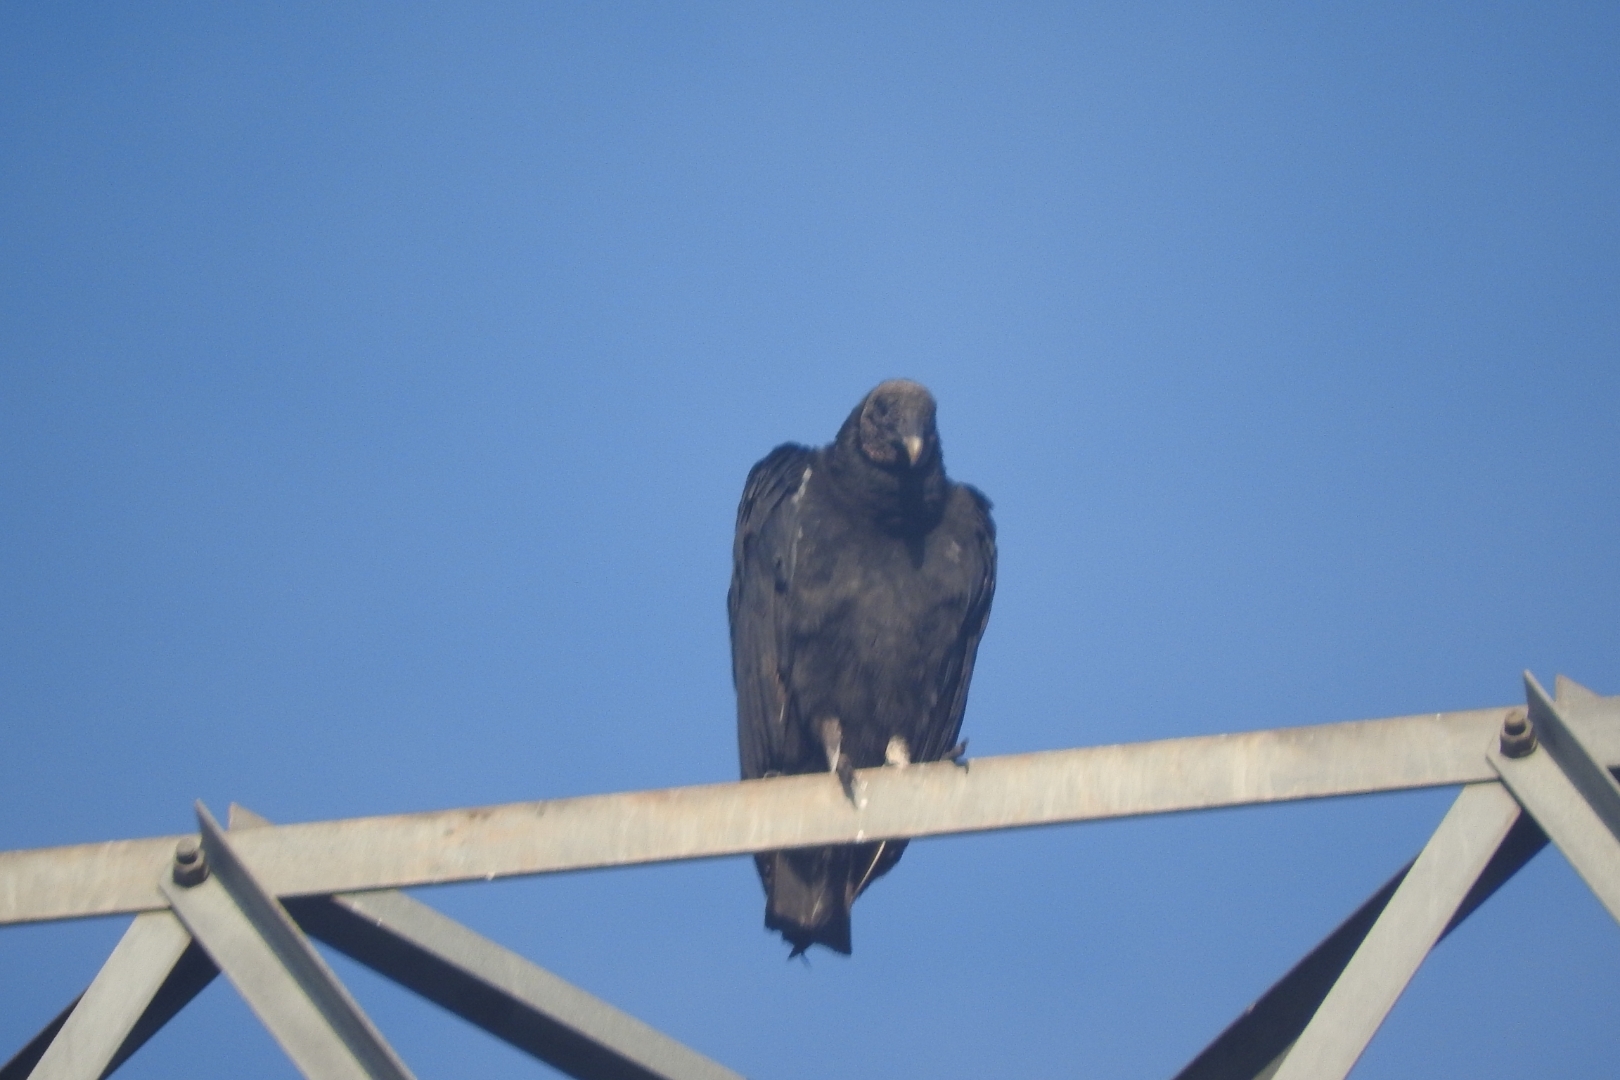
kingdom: Animalia
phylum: Chordata
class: Aves
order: Accipitriformes
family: Cathartidae
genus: Coragyps
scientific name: Coragyps atratus
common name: Black vulture
